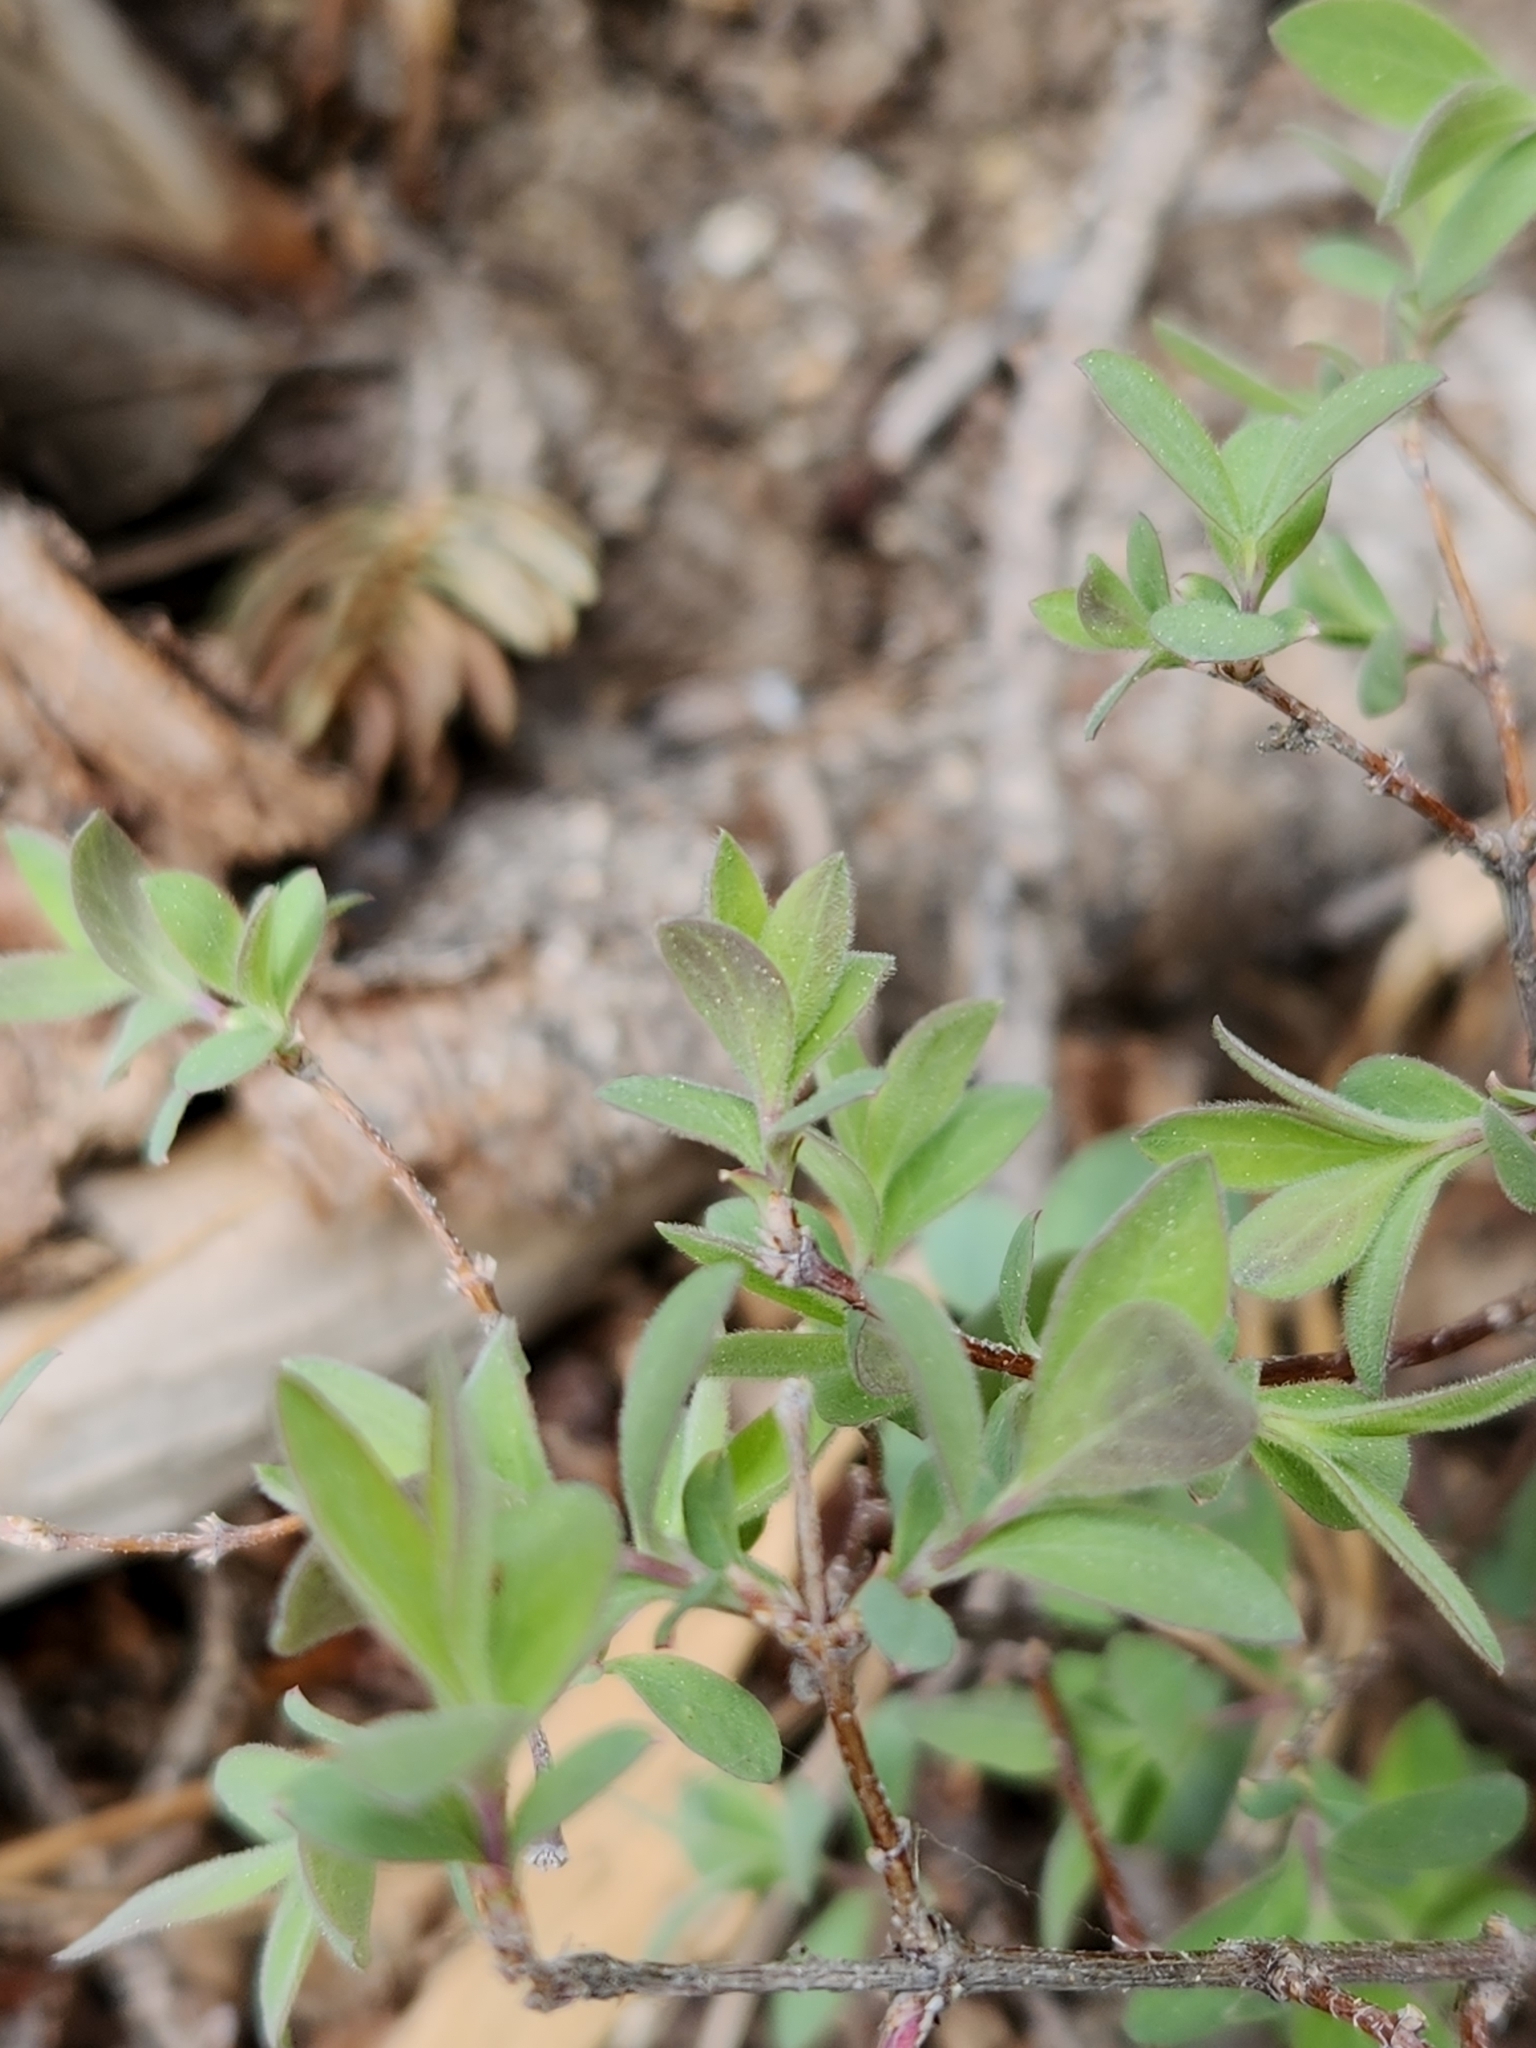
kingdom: Plantae
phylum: Tracheophyta
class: Magnoliopsida
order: Dipsacales
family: Caprifoliaceae
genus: Symphoricarpos
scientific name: Symphoricarpos rotundifolius
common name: Round-leaved snowberry
